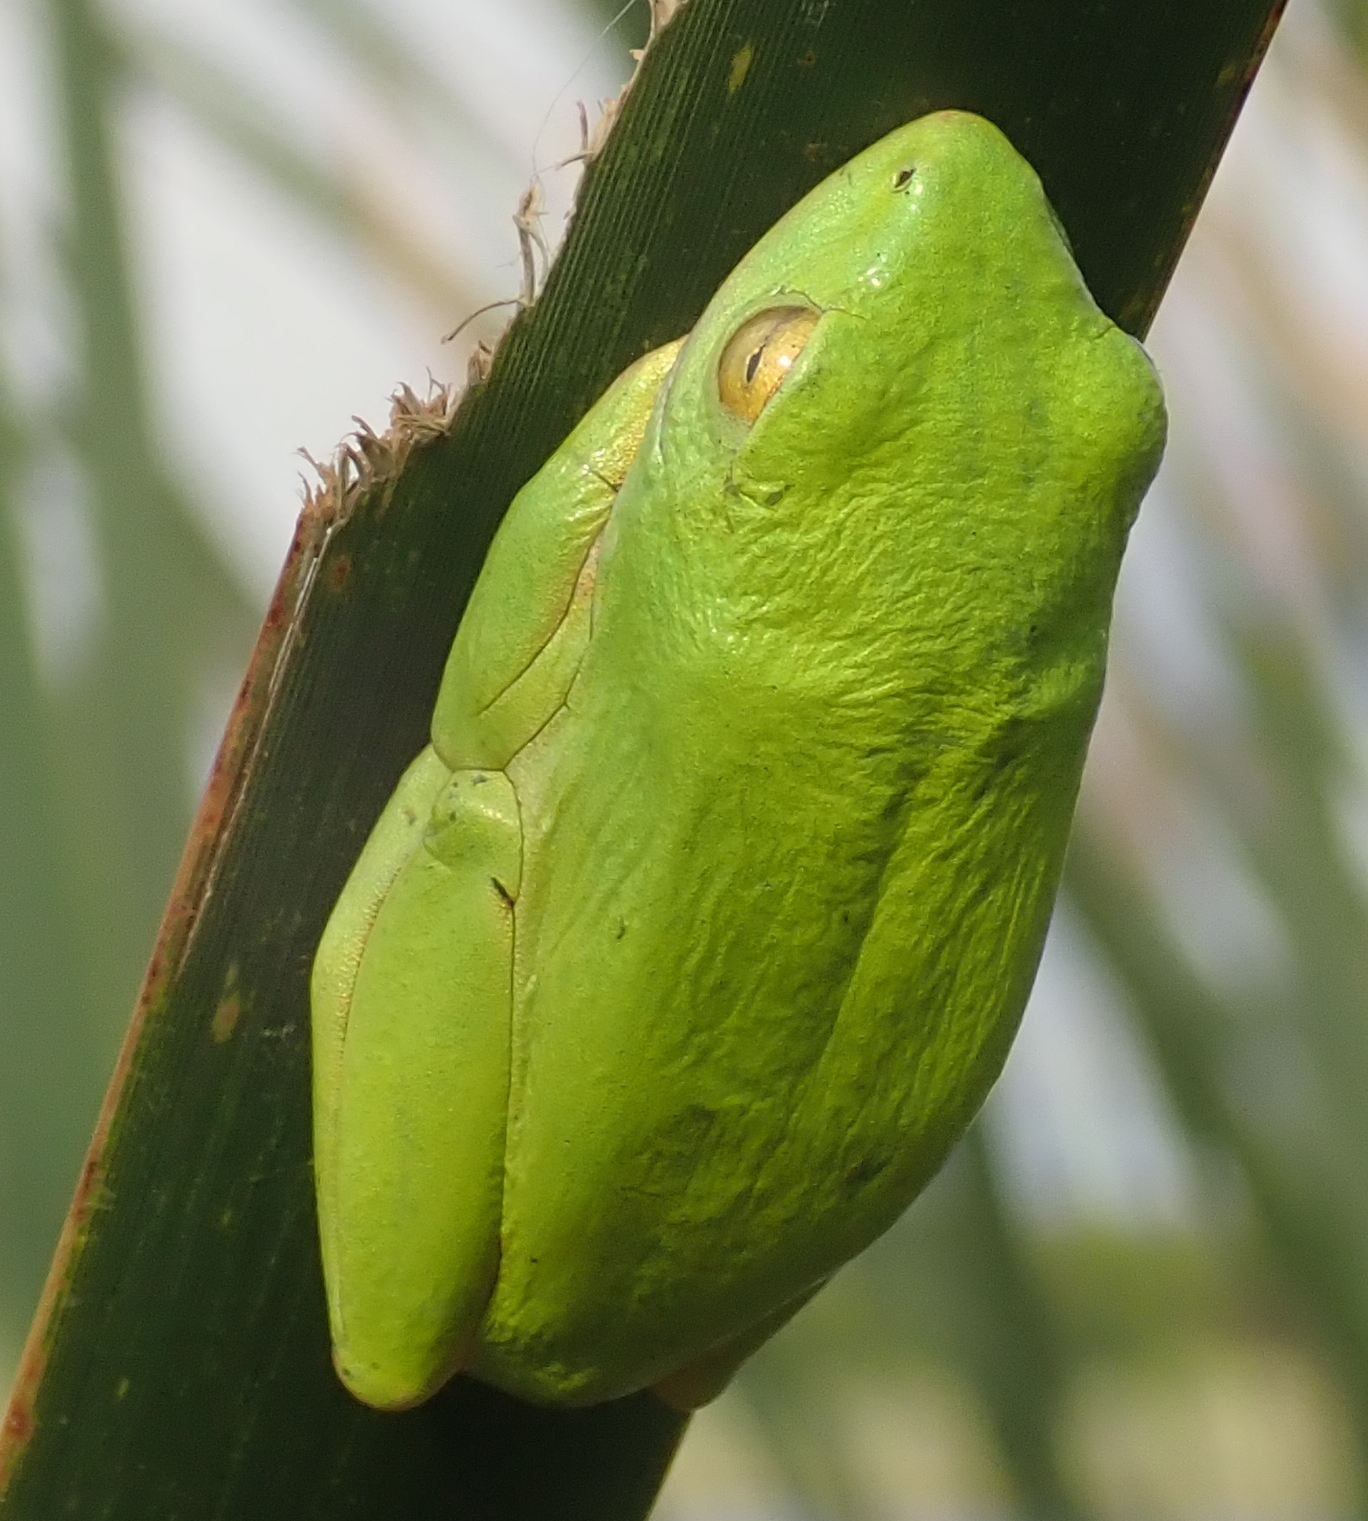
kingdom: Animalia
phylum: Chordata
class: Amphibia
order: Anura
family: Hyperoliidae
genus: Hyperolius
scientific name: Hyperolius tuberilinguis
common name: Tinker reed frog
